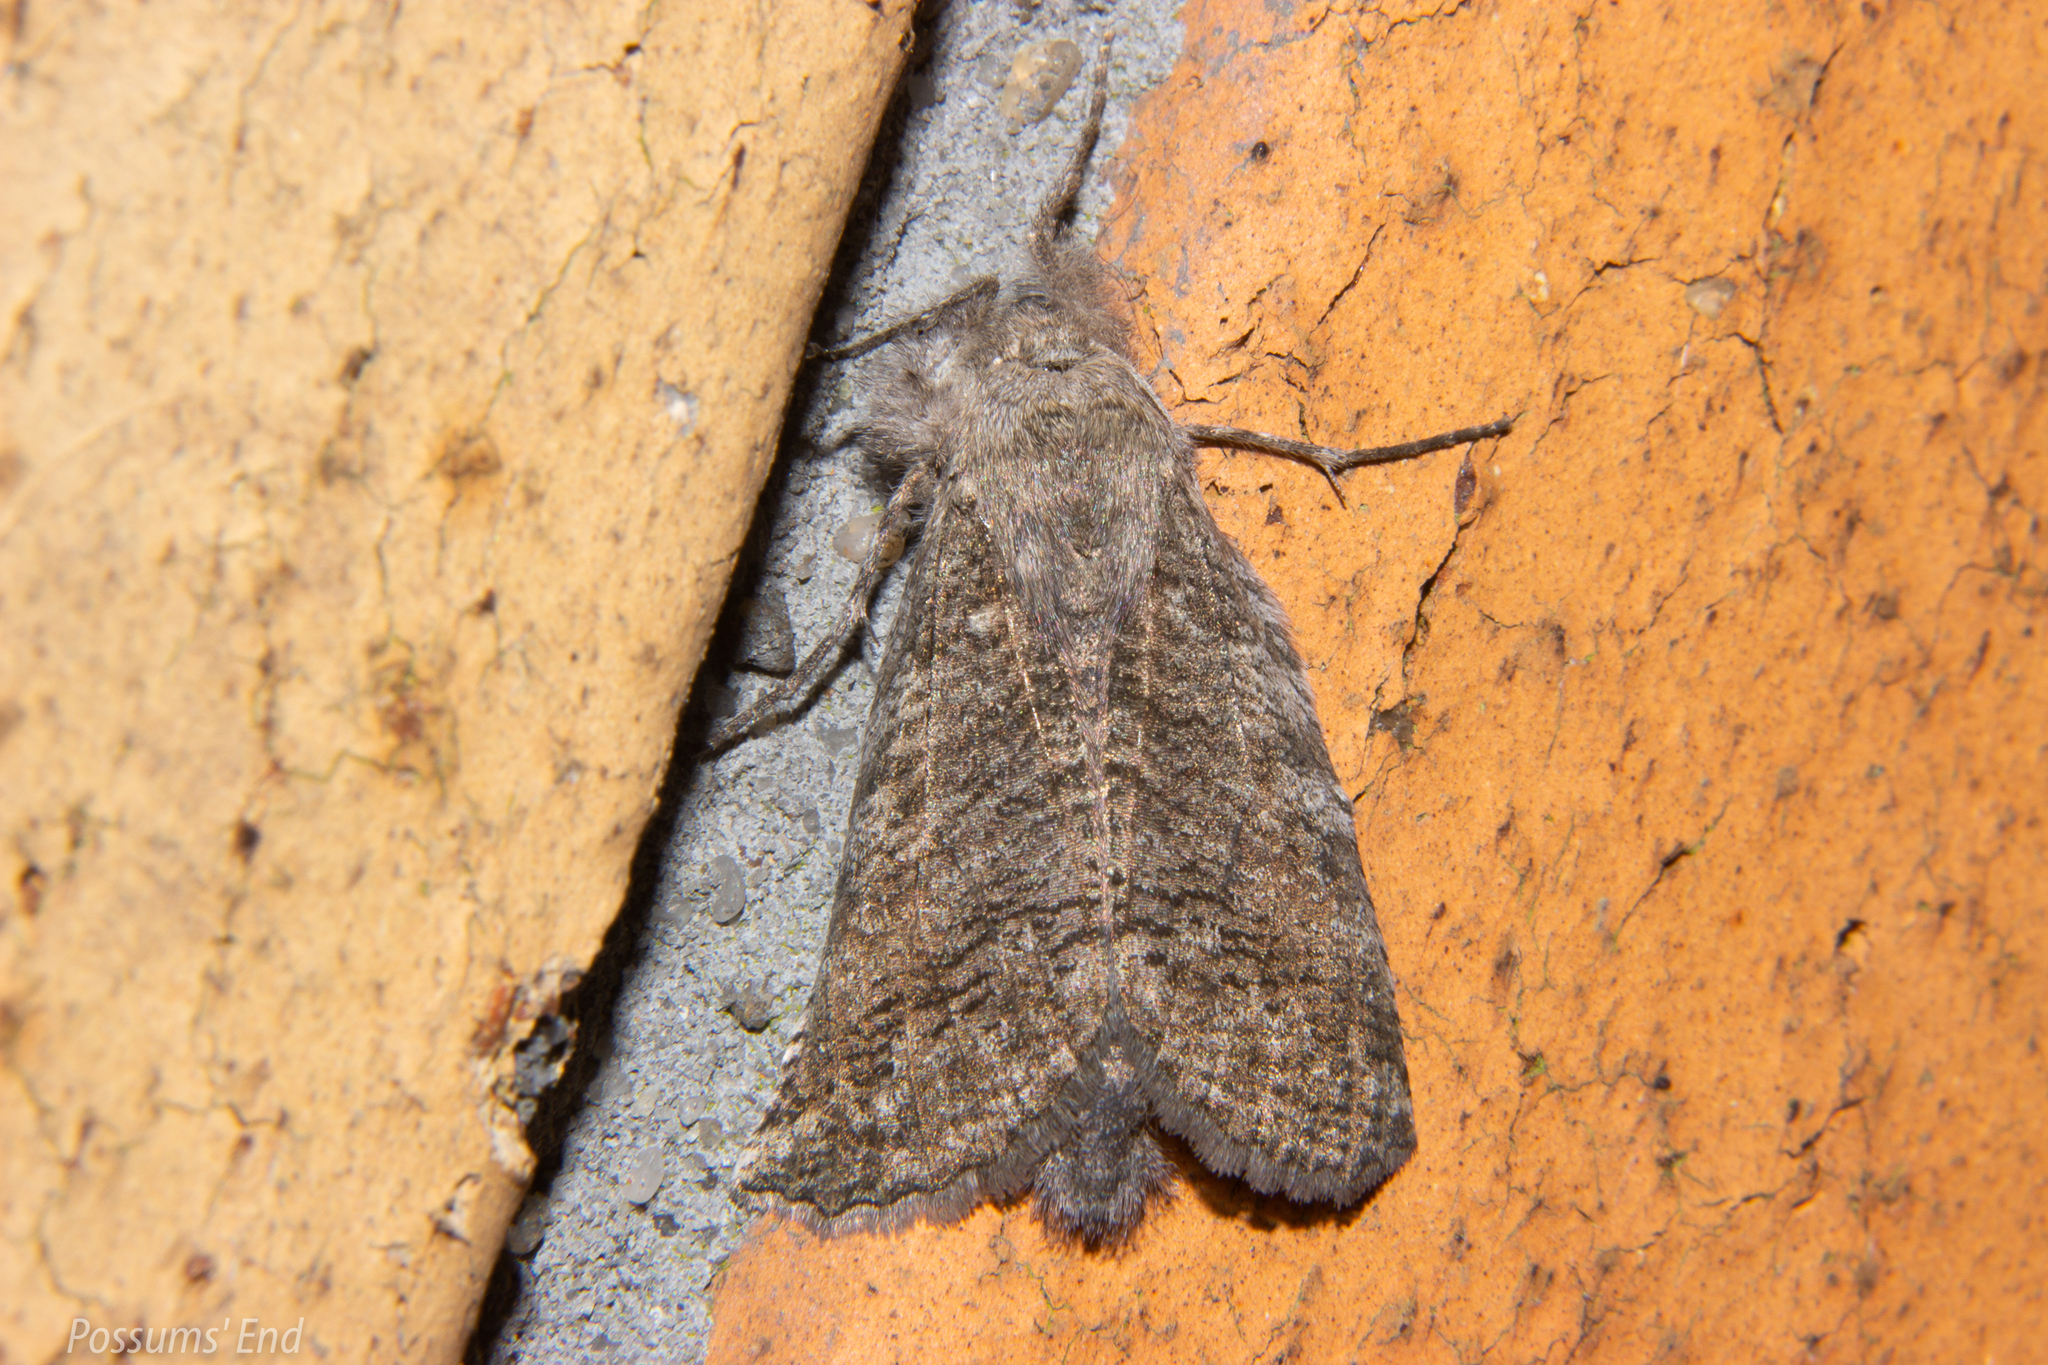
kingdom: Animalia
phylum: Arthropoda
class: Insecta
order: Lepidoptera
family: Geometridae
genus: Declana
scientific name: Declana
